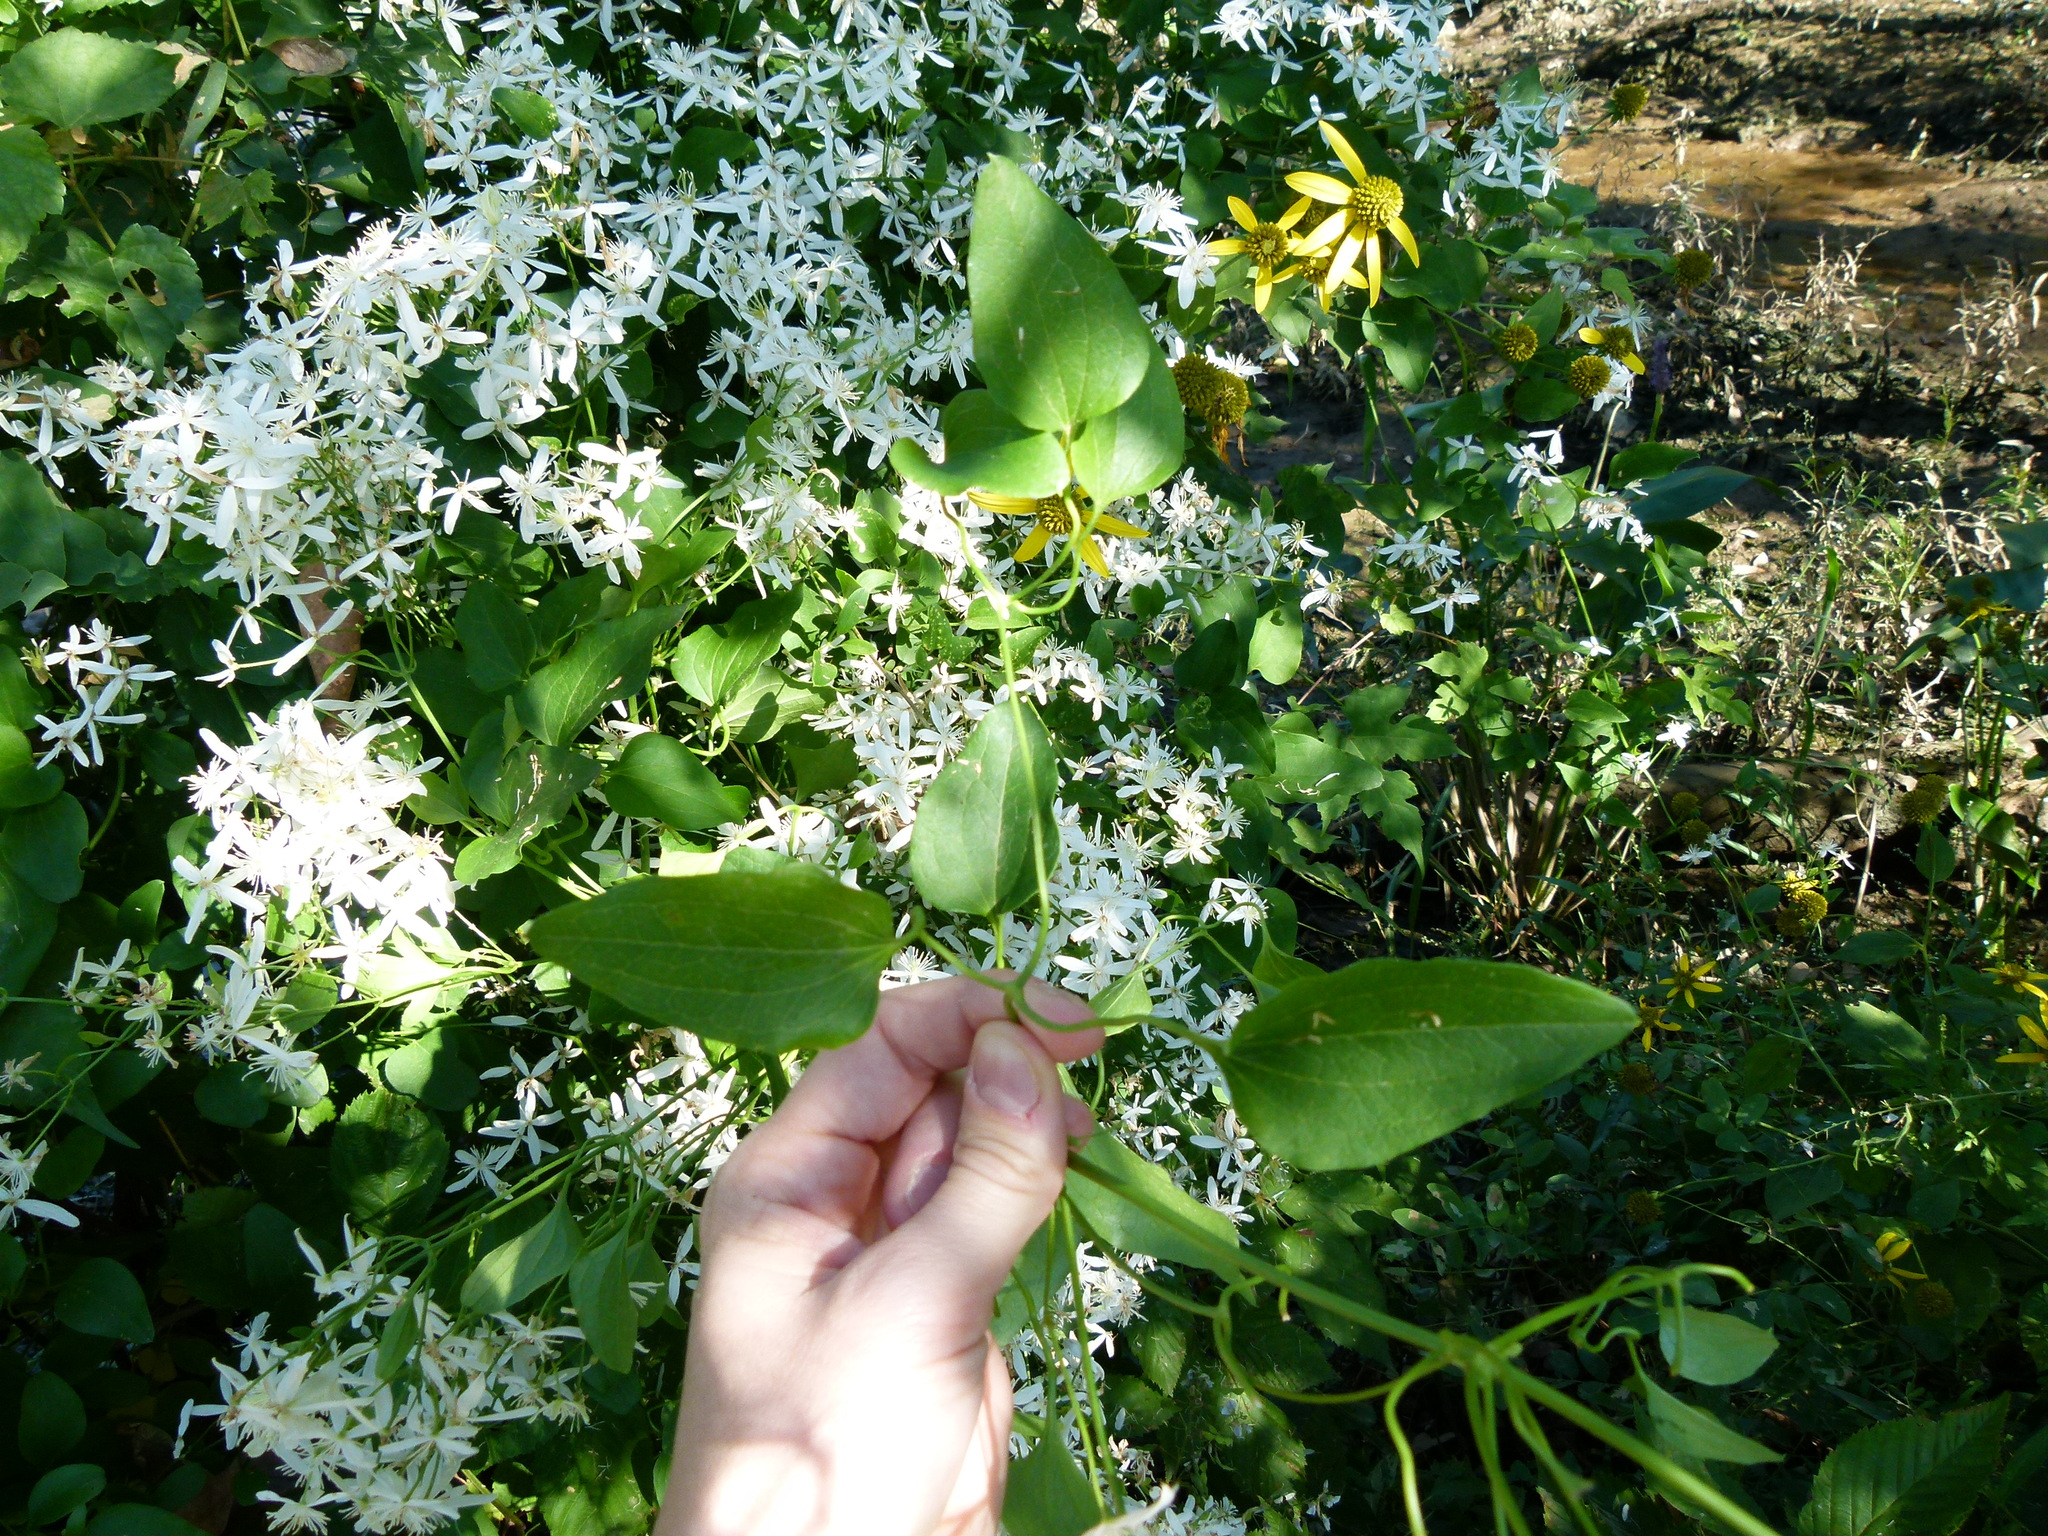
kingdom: Plantae
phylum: Tracheophyta
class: Magnoliopsida
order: Ranunculales
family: Ranunculaceae
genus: Clematis
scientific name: Clematis terniflora
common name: Sweet autumn clematis
